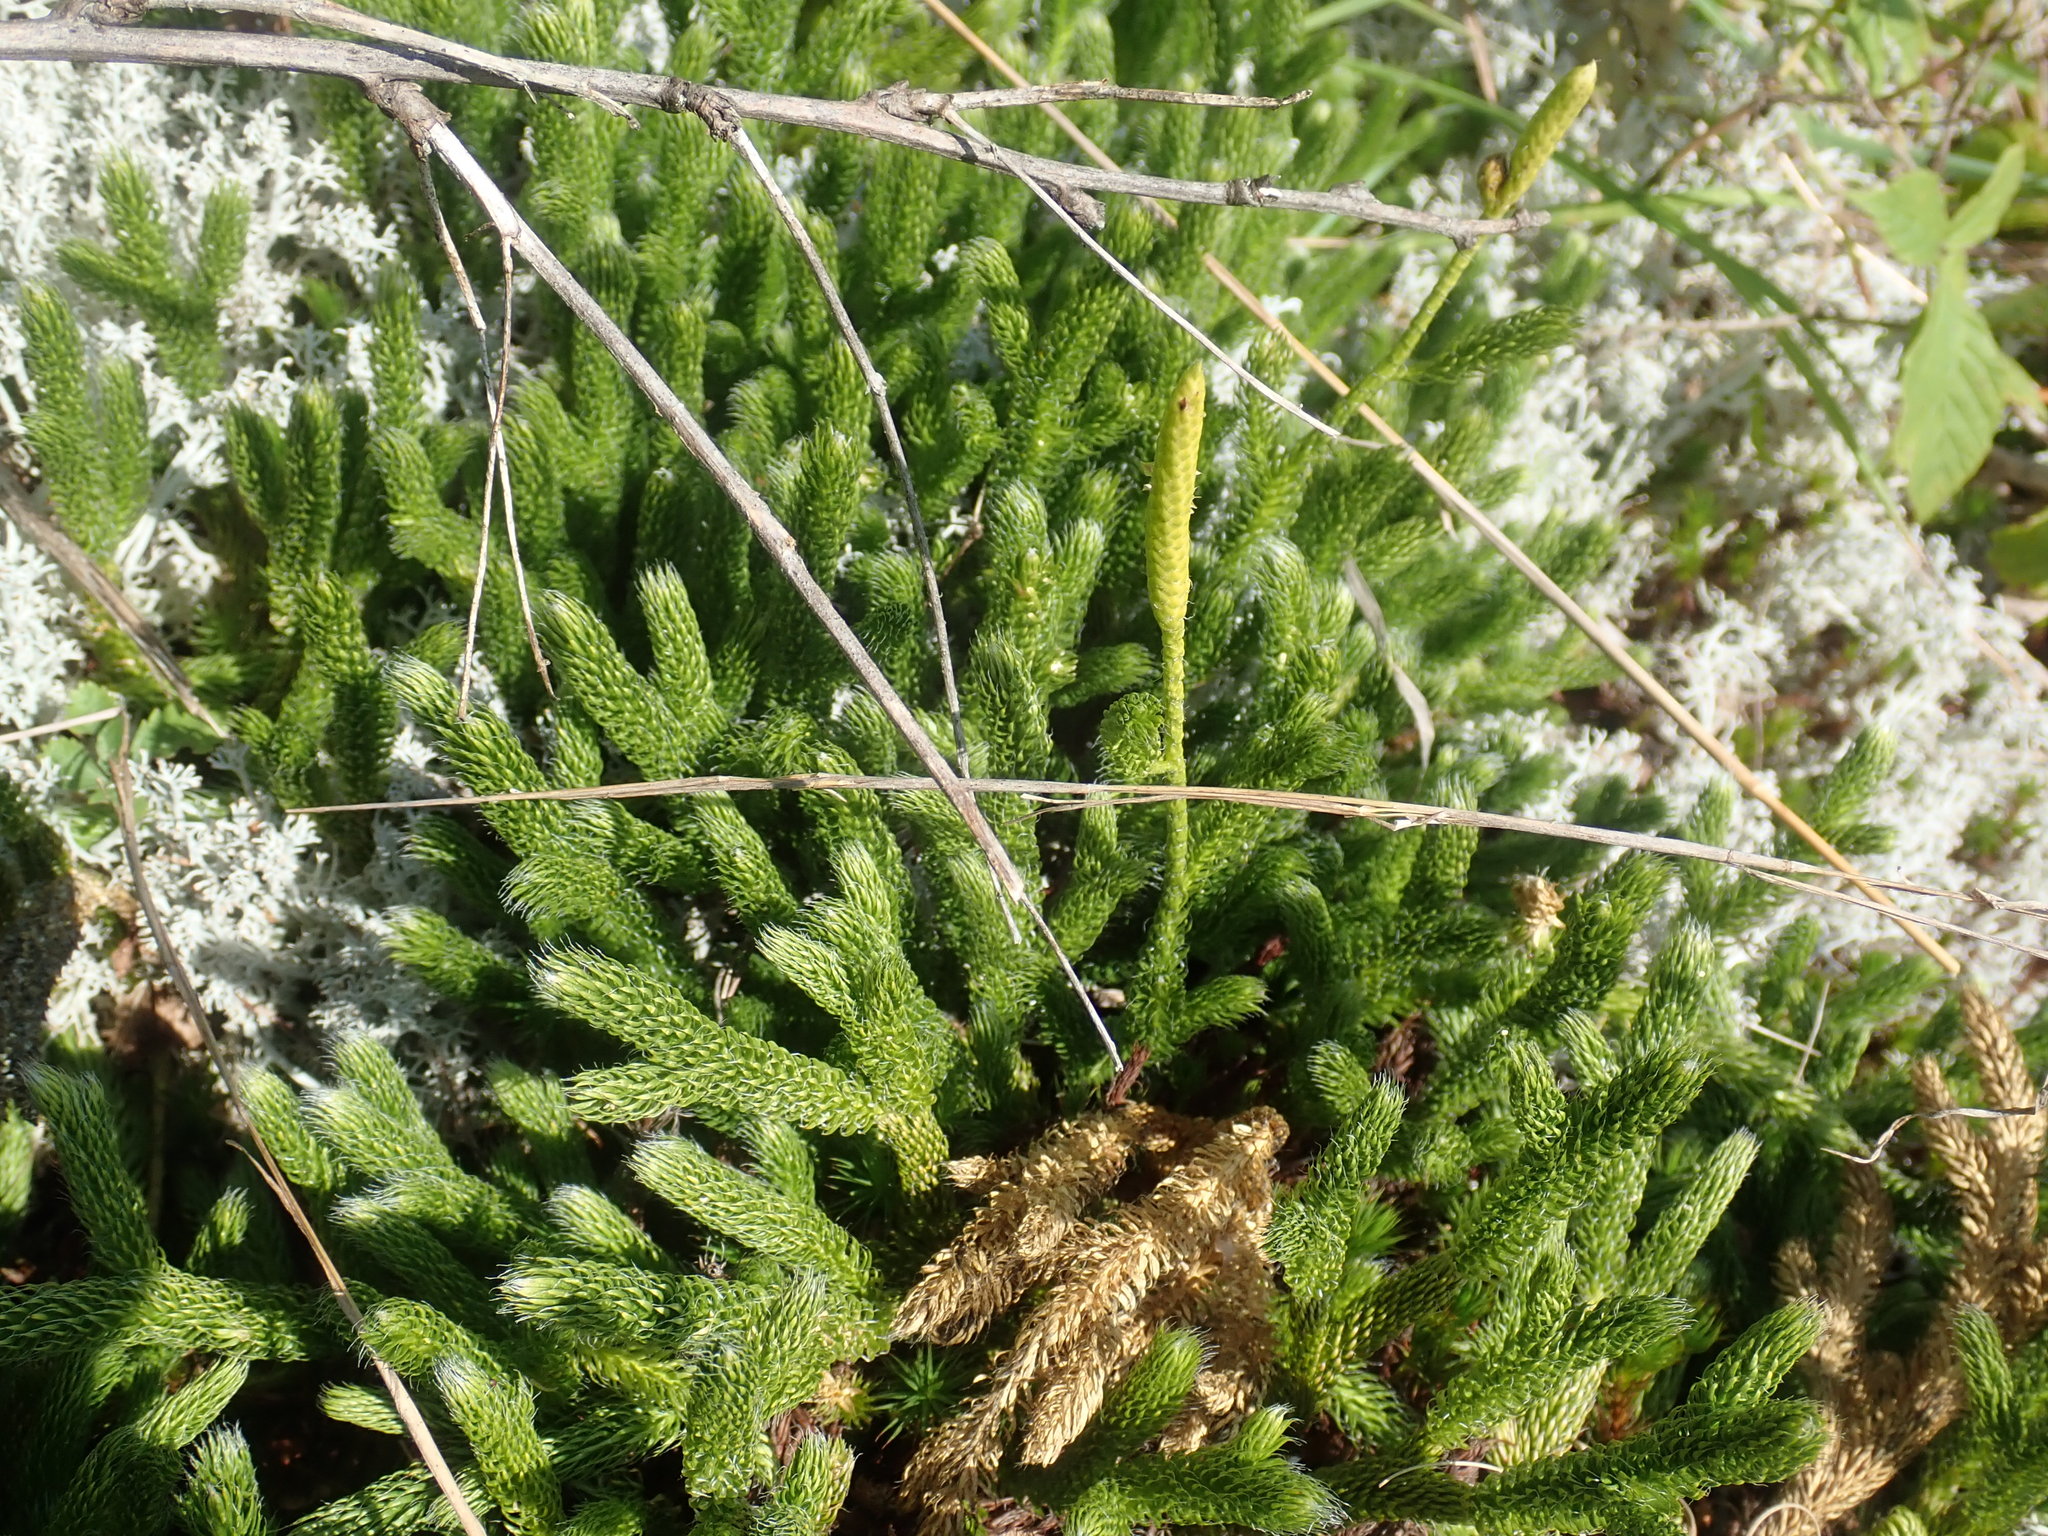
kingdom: Plantae
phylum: Tracheophyta
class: Lycopodiopsida
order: Lycopodiales
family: Lycopodiaceae
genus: Lycopodium
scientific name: Lycopodium clavatum
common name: Stag's-horn clubmoss
